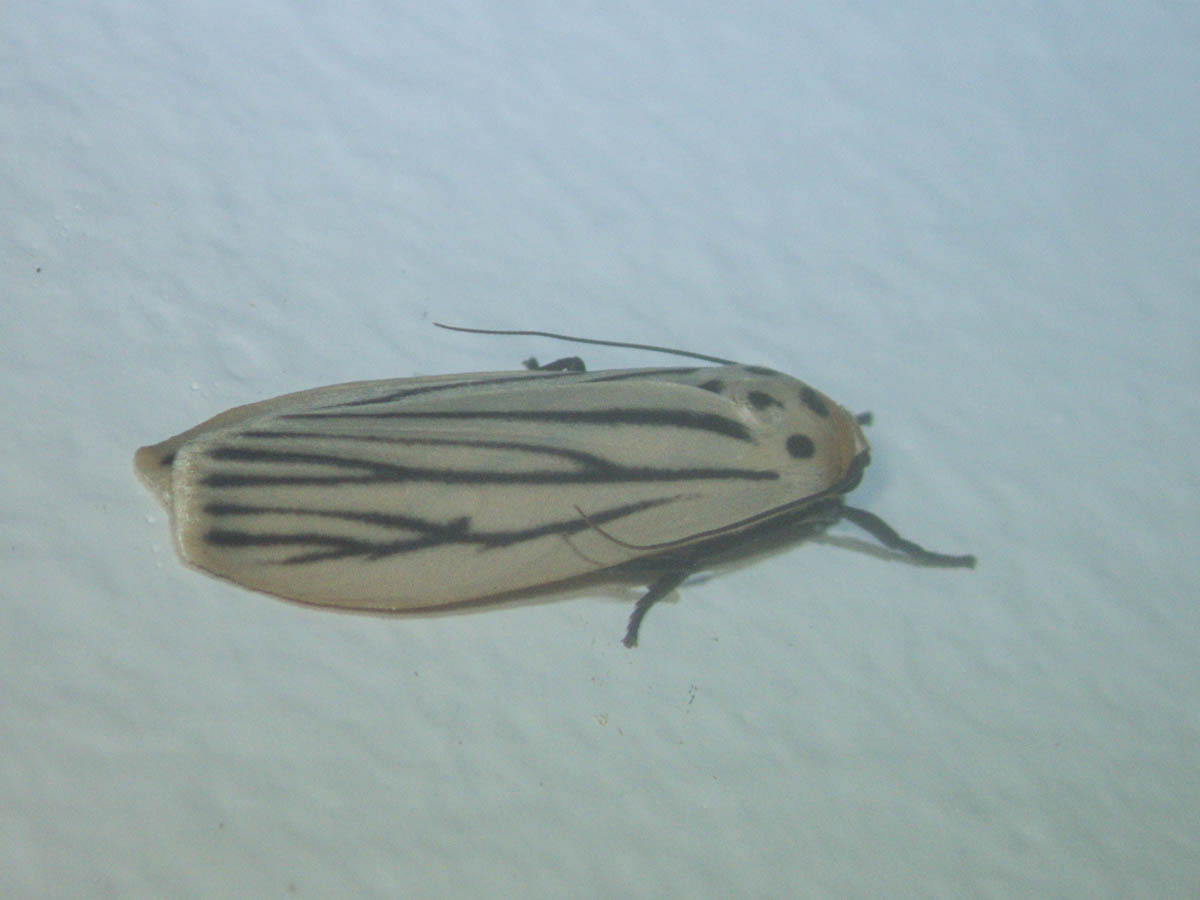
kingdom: Animalia
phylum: Arthropoda
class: Insecta
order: Lepidoptera
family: Erebidae
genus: Tigrioides
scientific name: Tigrioides leucanioides
